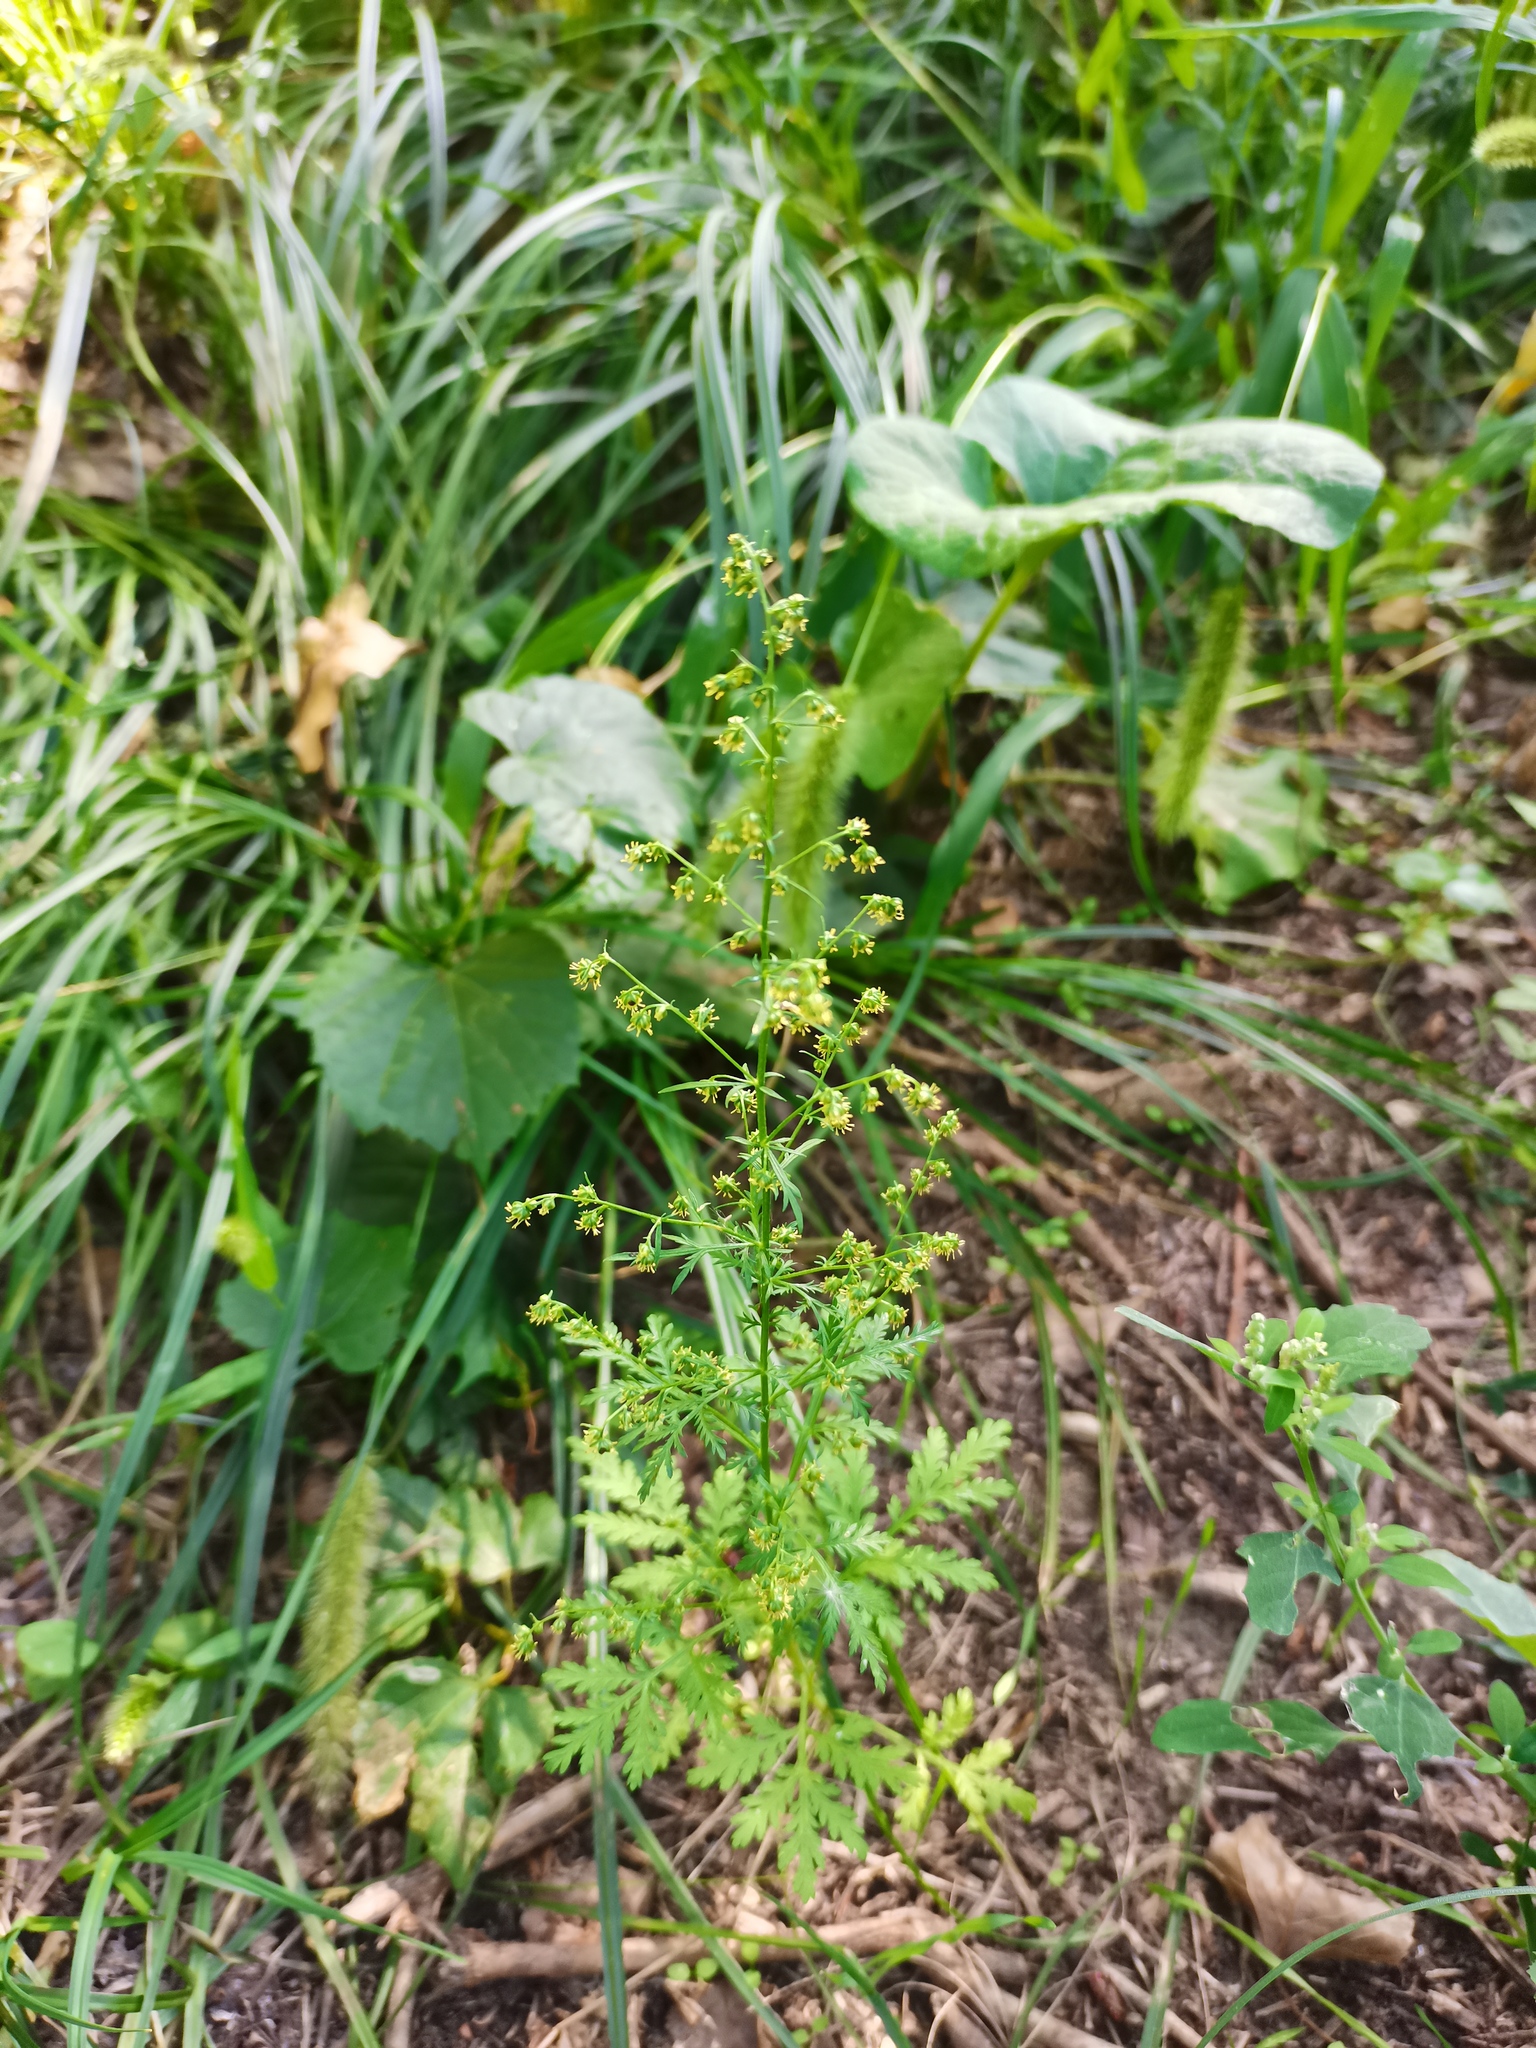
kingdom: Plantae
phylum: Tracheophyta
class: Magnoliopsida
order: Asterales
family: Asteraceae
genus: Artemisia
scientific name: Artemisia annua
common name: Sweet sagewort
